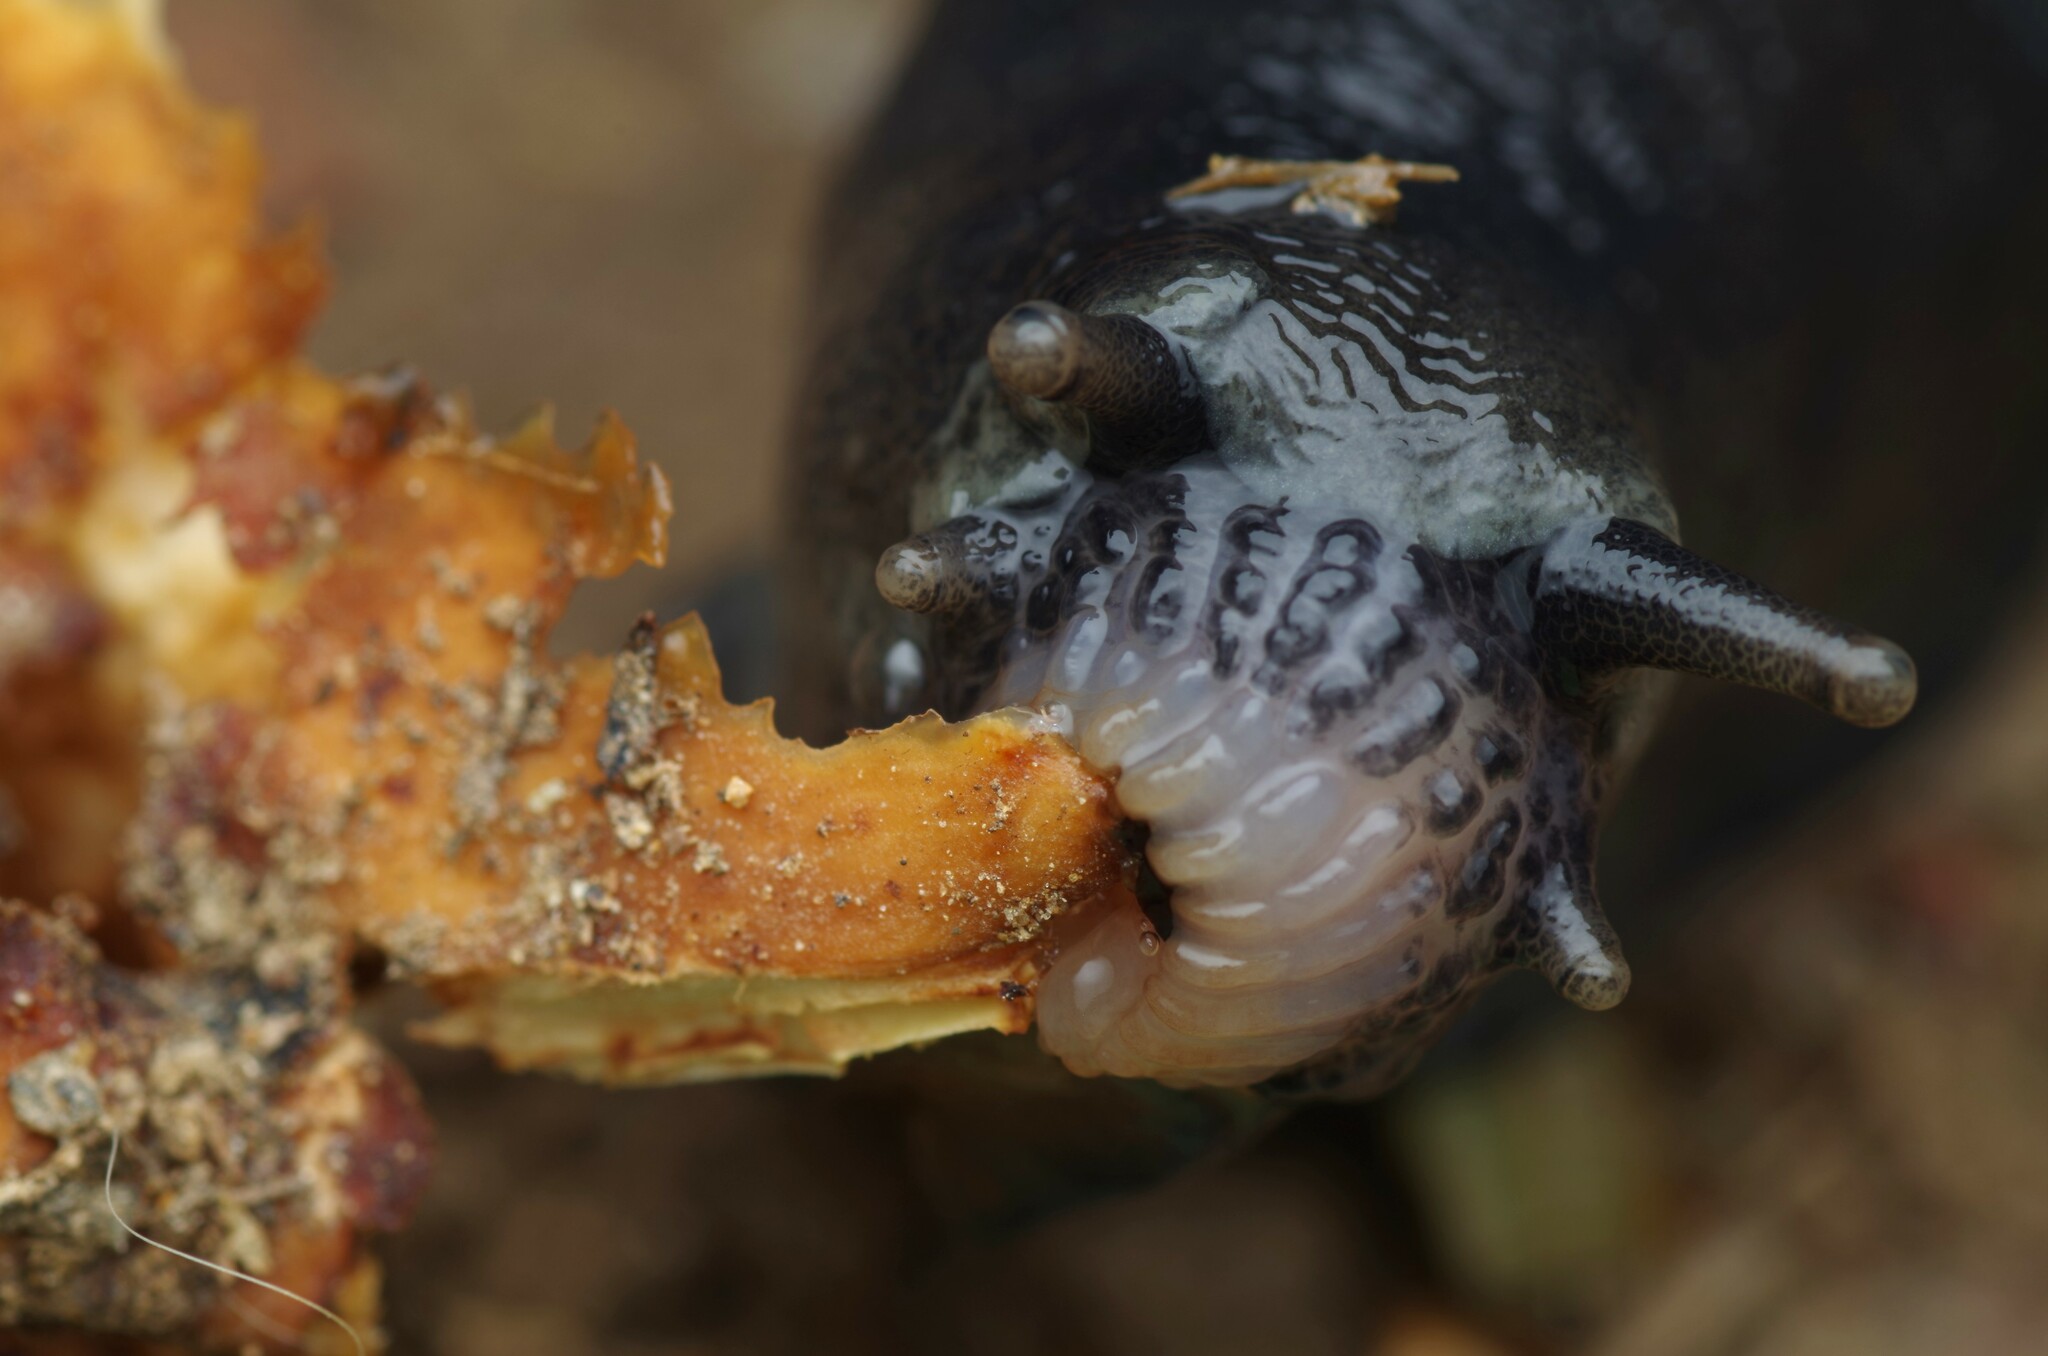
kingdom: Animalia
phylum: Mollusca
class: Gastropoda
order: Stylommatophora
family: Limacidae
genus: Limax
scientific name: Limax cinereoniger
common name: Ash-black slug
